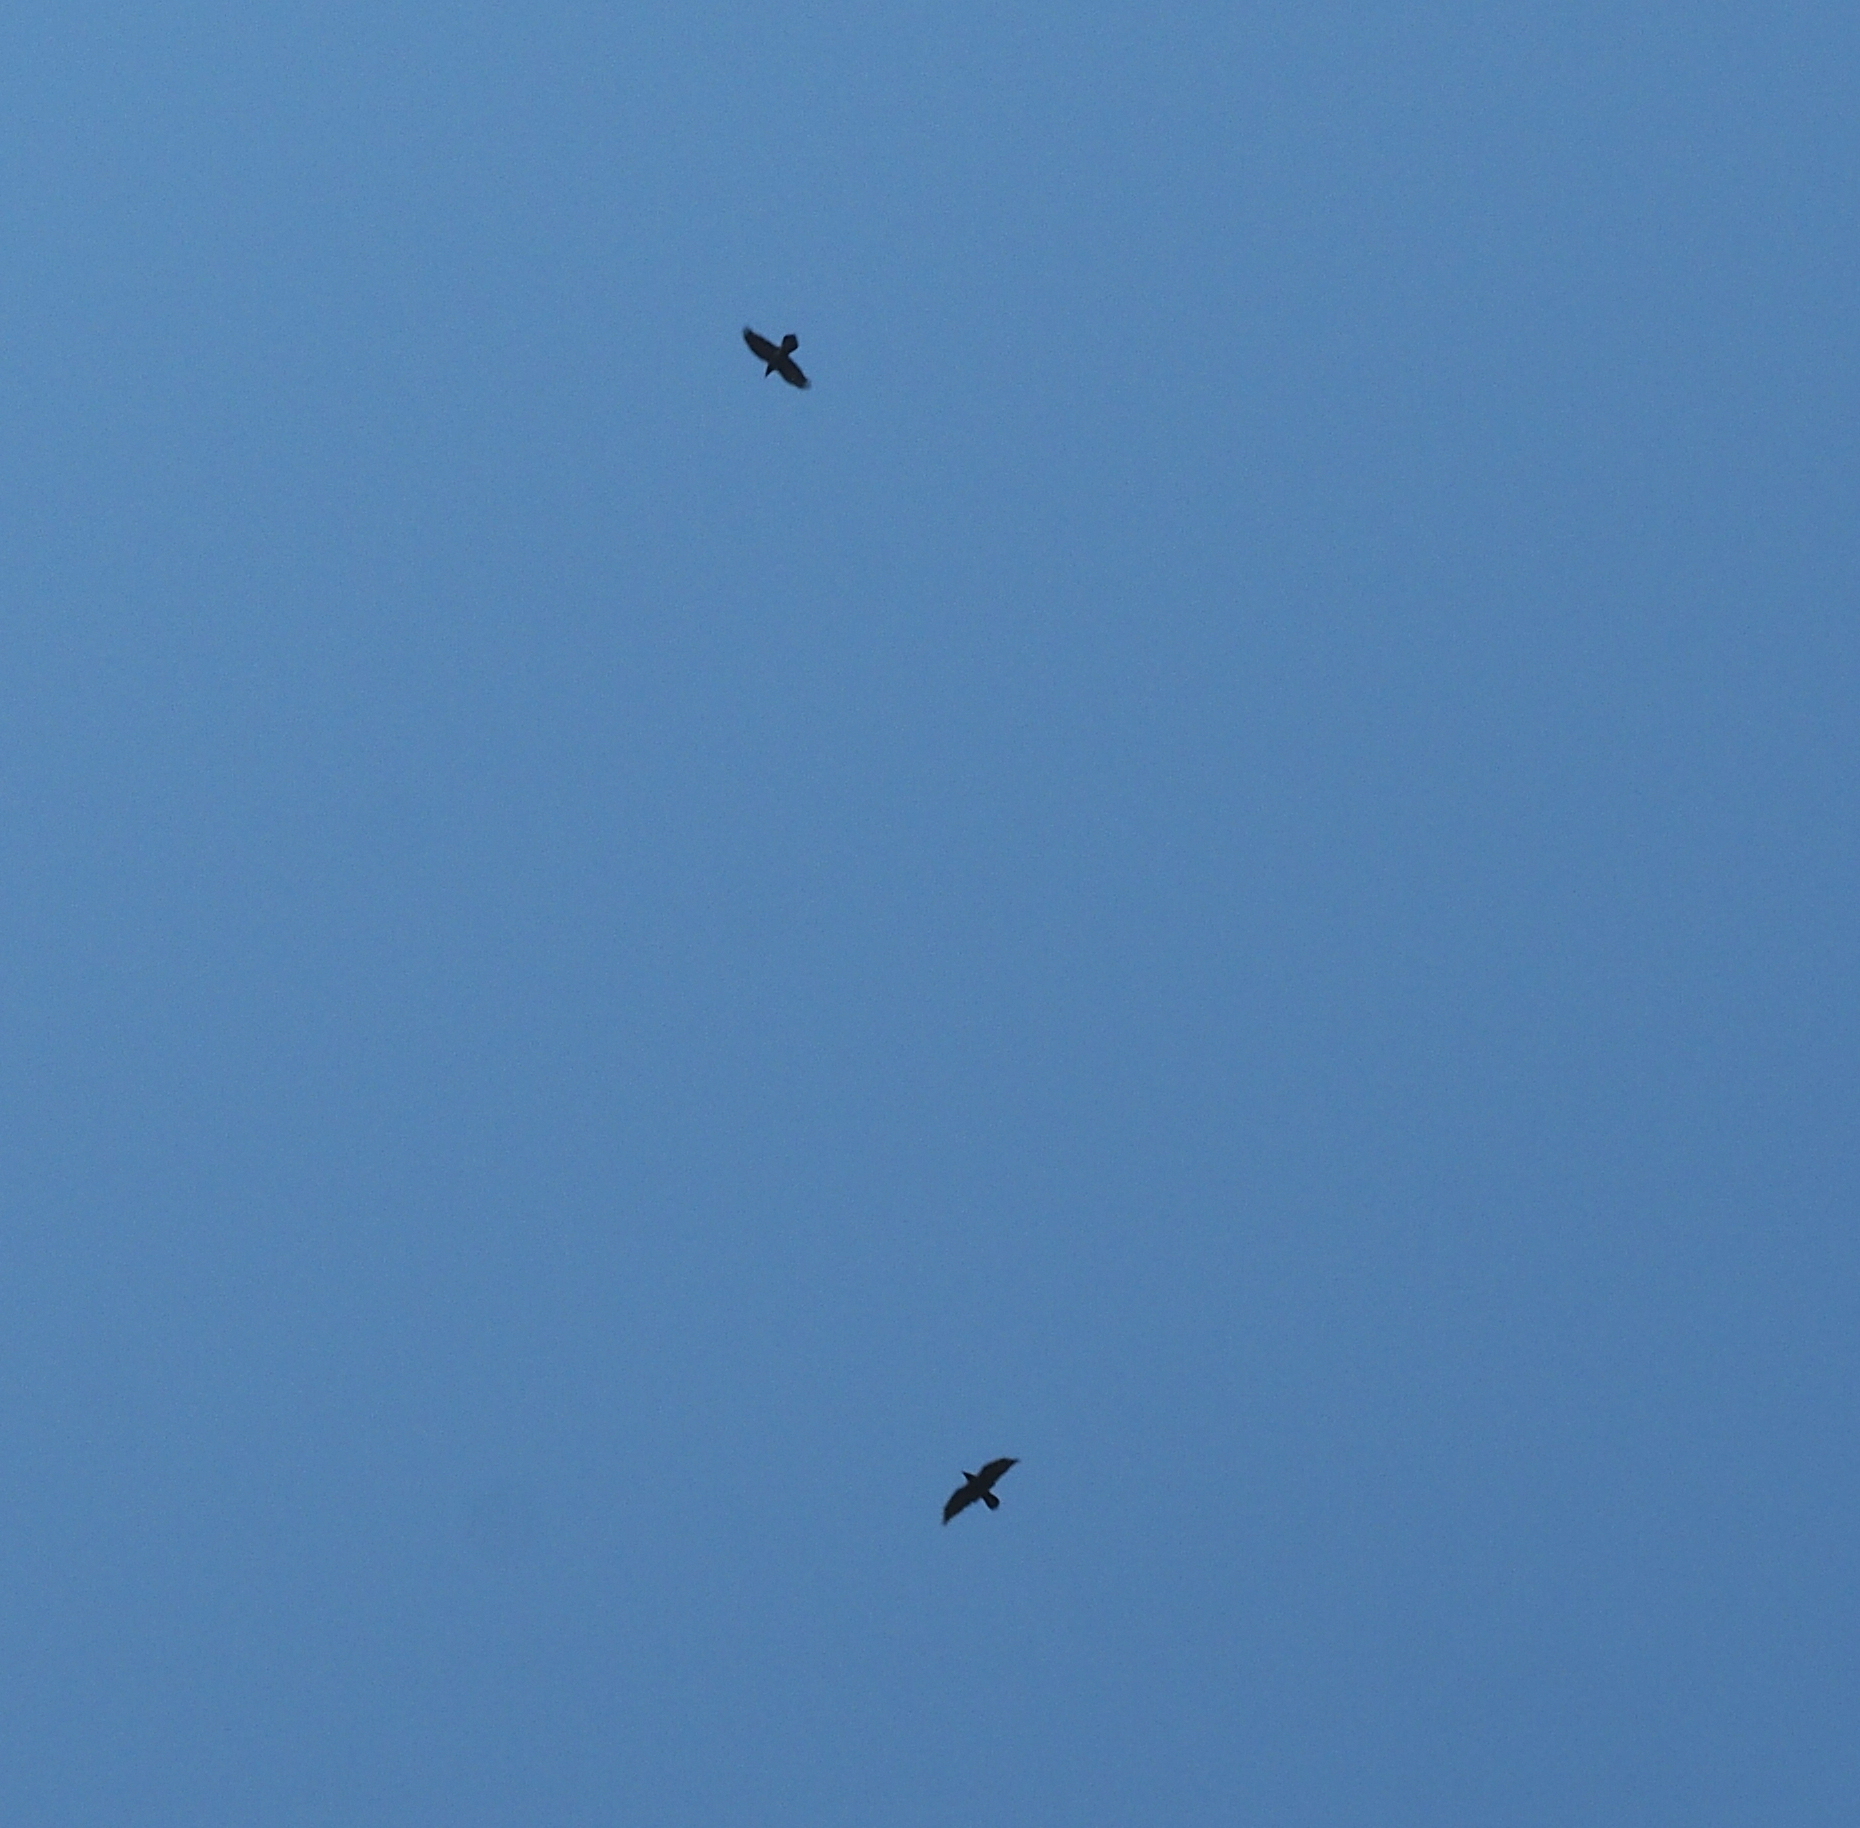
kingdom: Animalia
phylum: Chordata
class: Aves
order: Passeriformes
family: Corvidae
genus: Corvus
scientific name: Corvus corax
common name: Common raven
